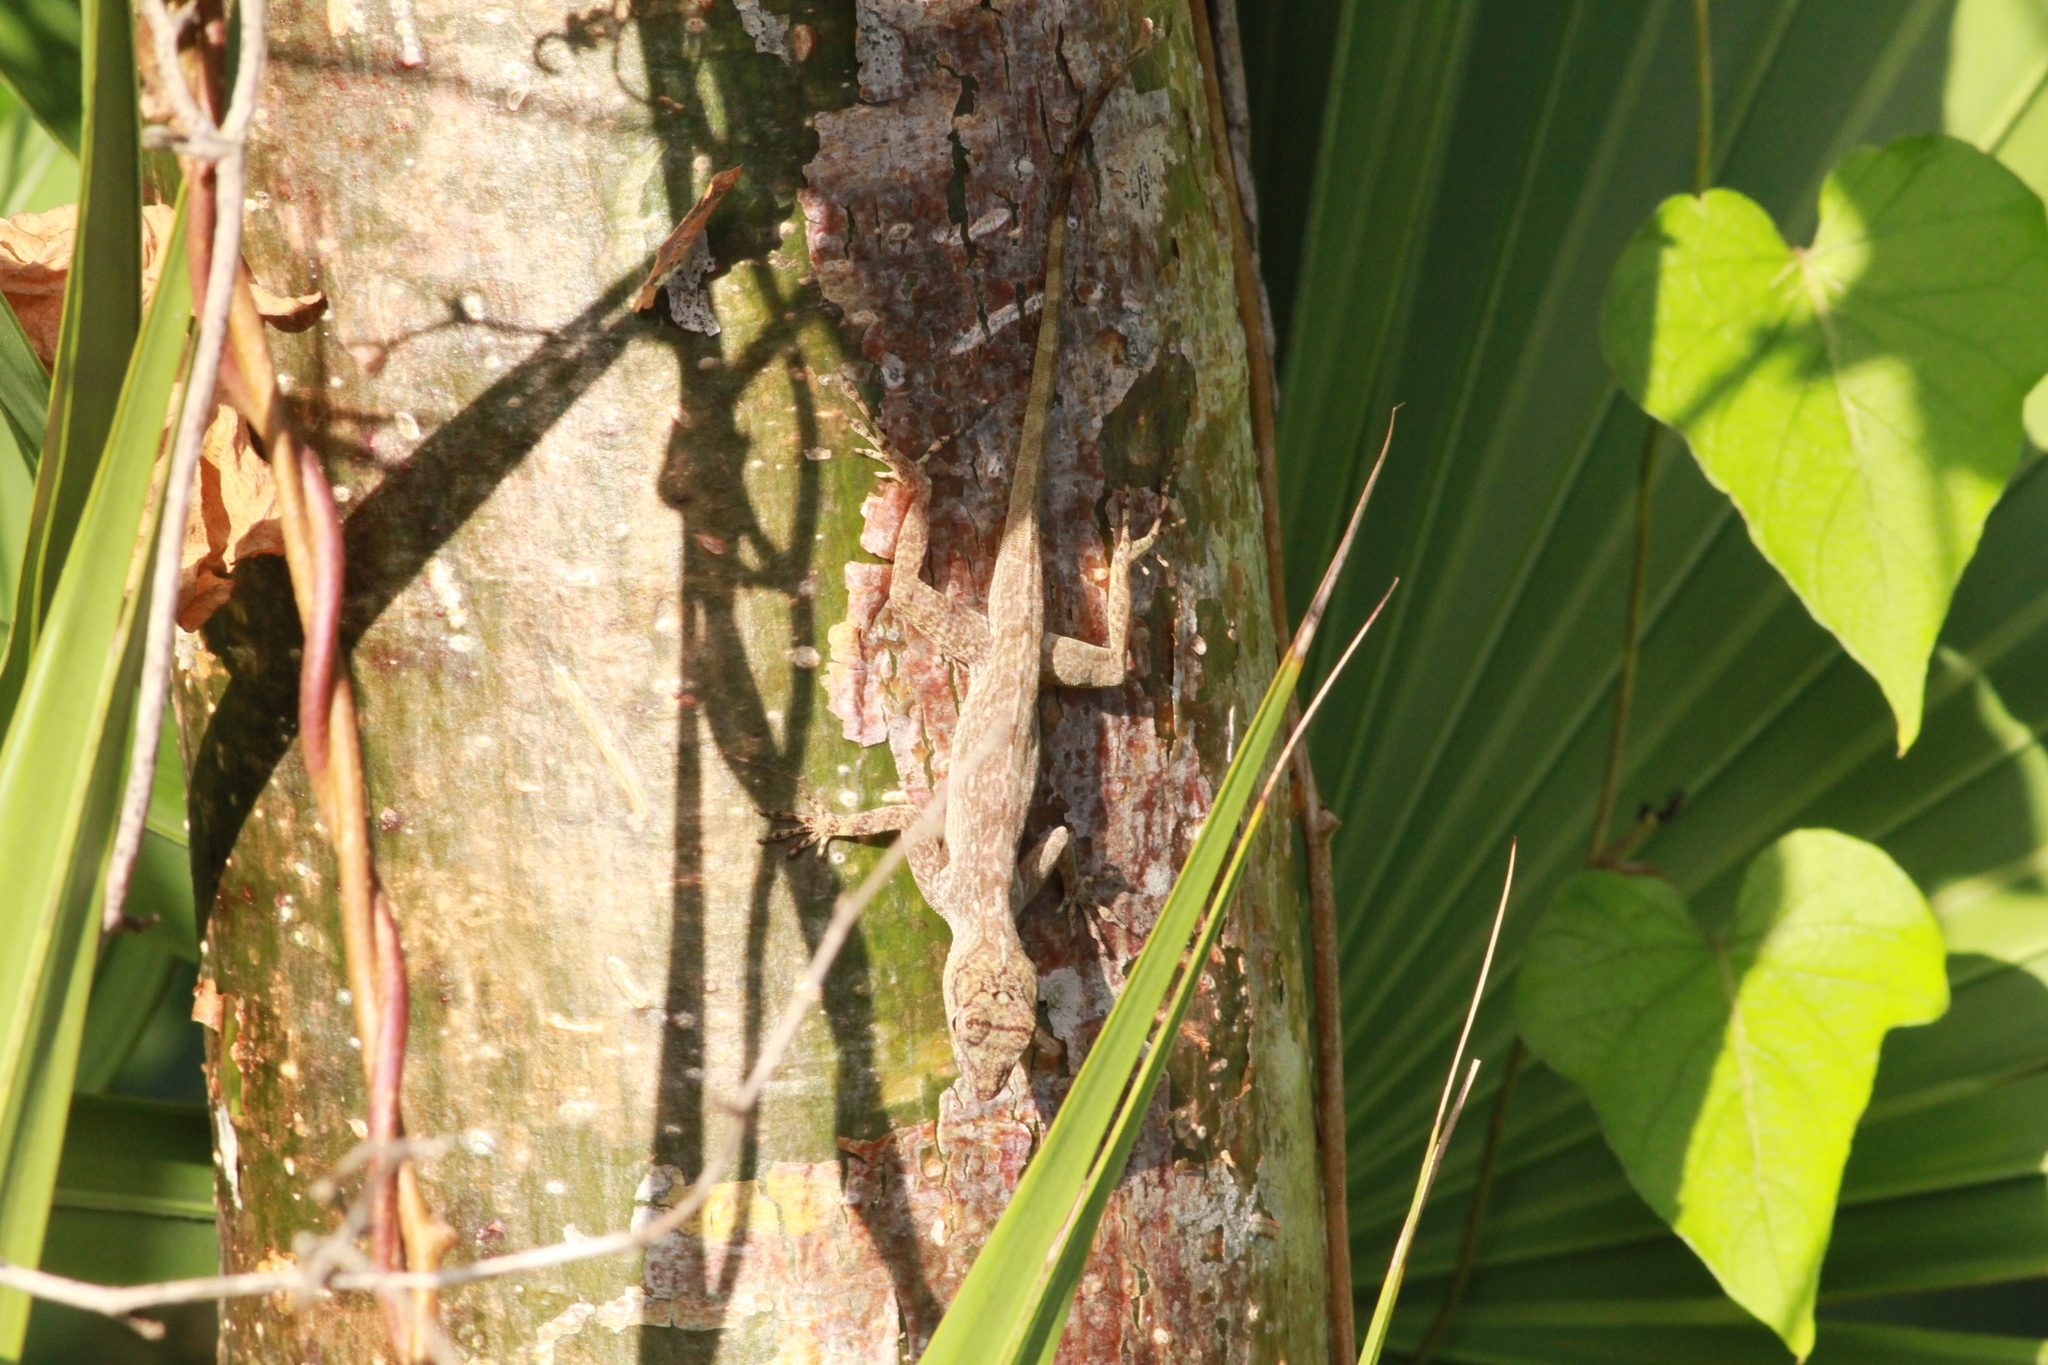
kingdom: Animalia
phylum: Chordata
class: Squamata
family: Dactyloidae
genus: Anolis
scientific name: Anolis distichus
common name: Bark anole
